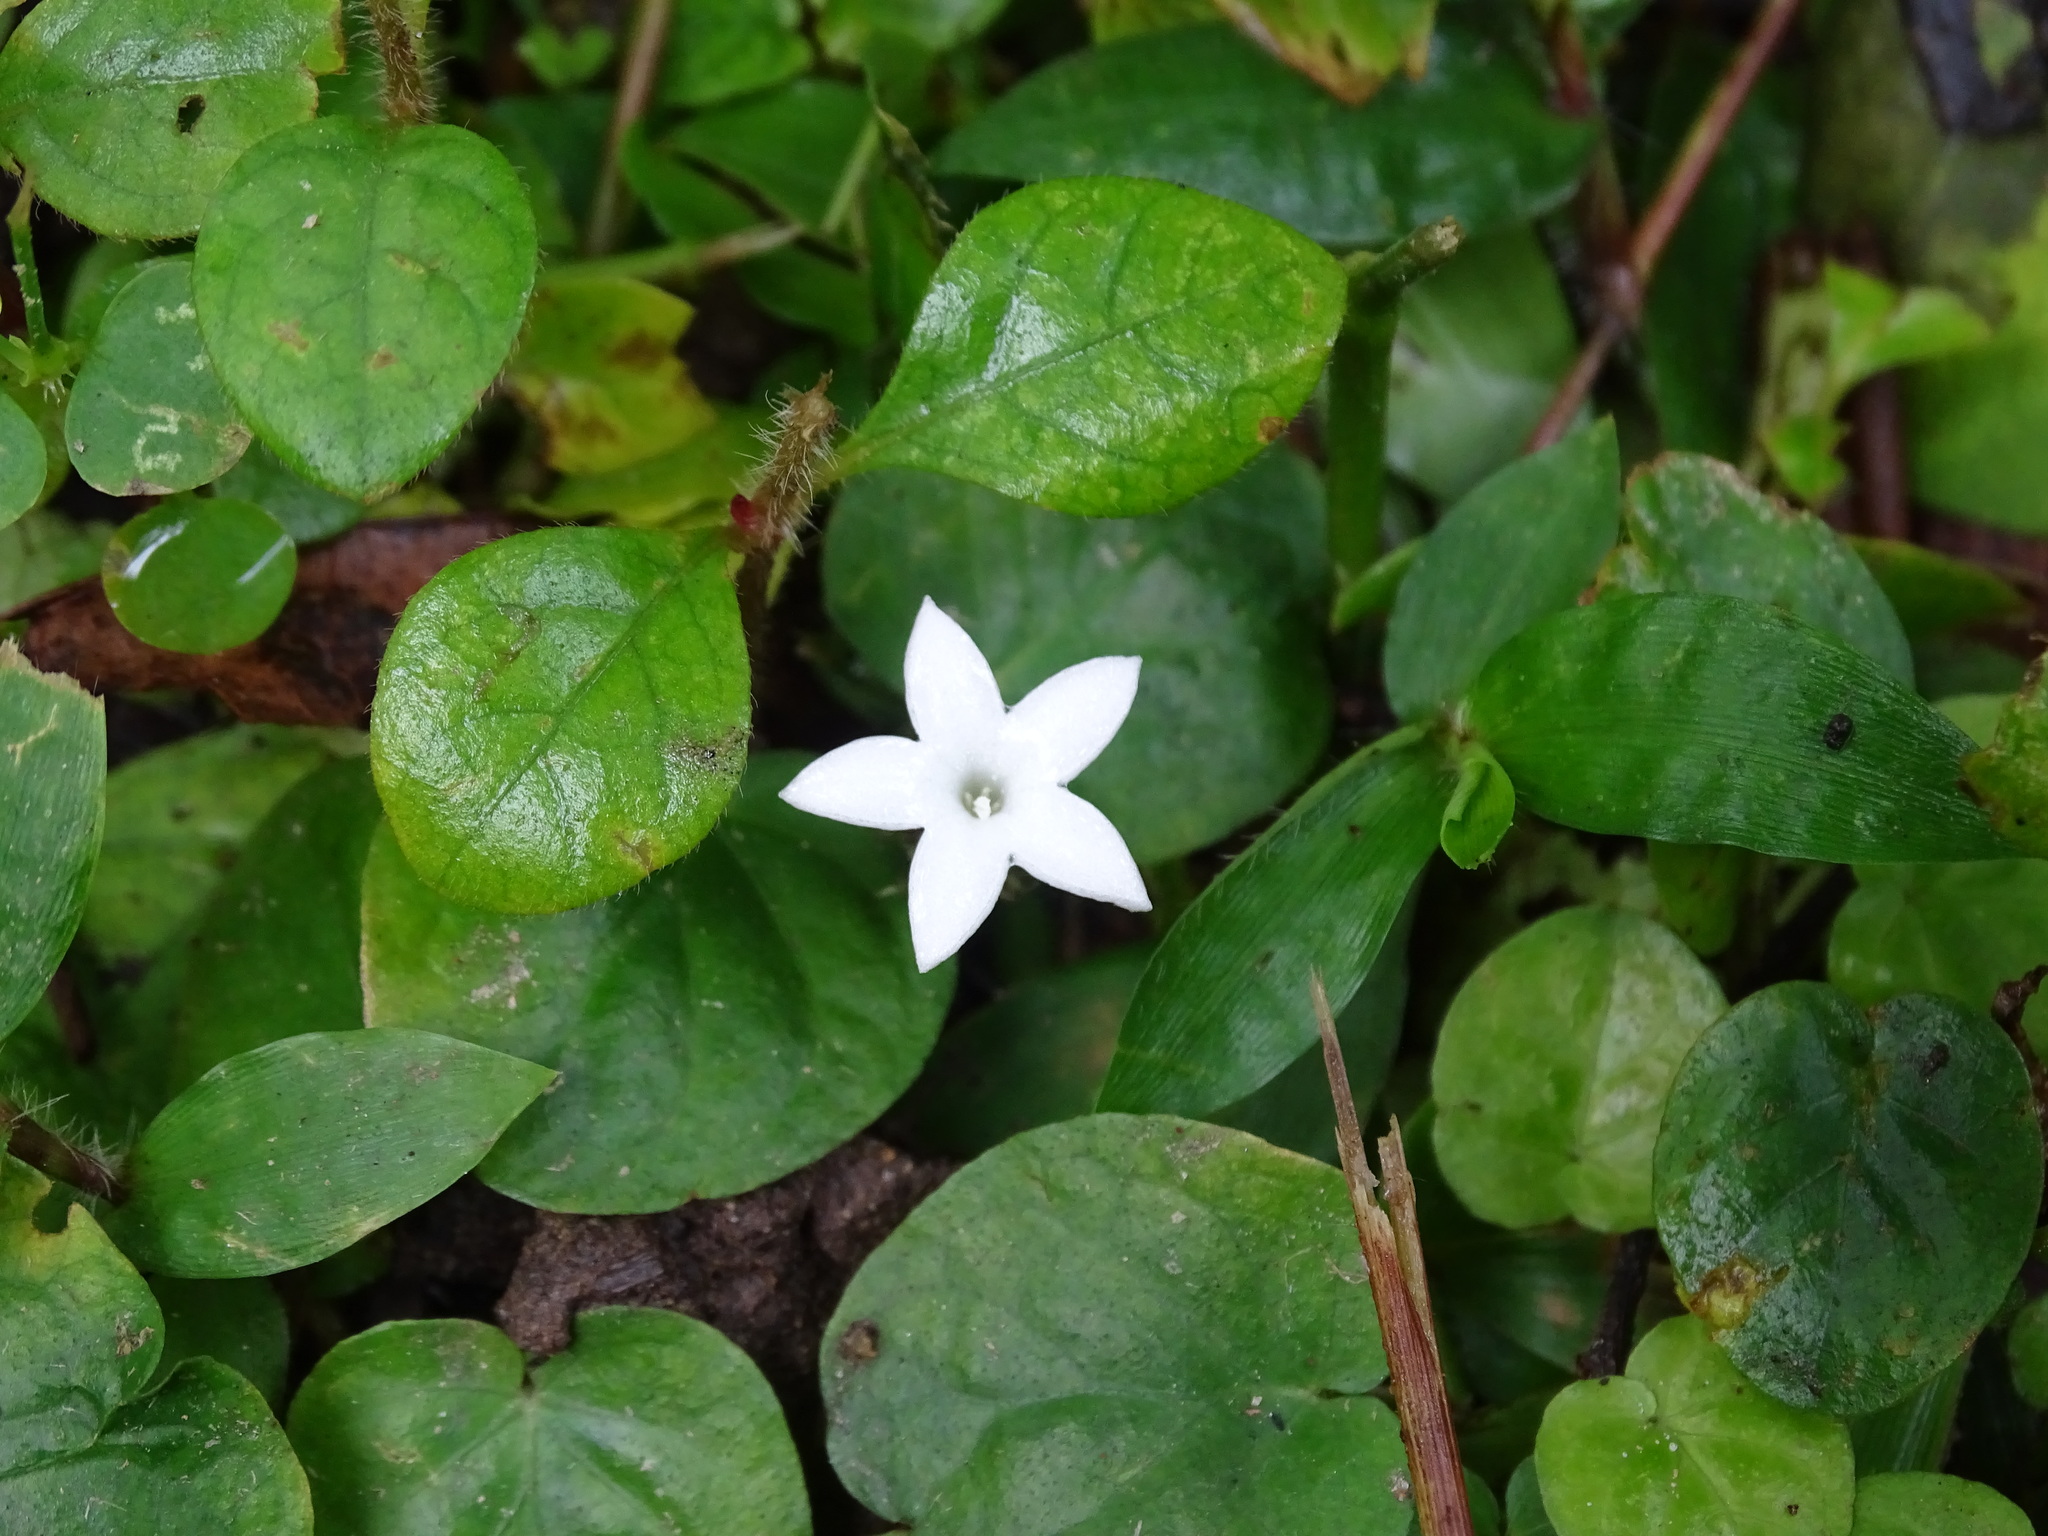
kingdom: Plantae
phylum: Tracheophyta
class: Magnoliopsida
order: Gentianales
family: Rubiaceae
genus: Geophila
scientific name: Geophila repens
